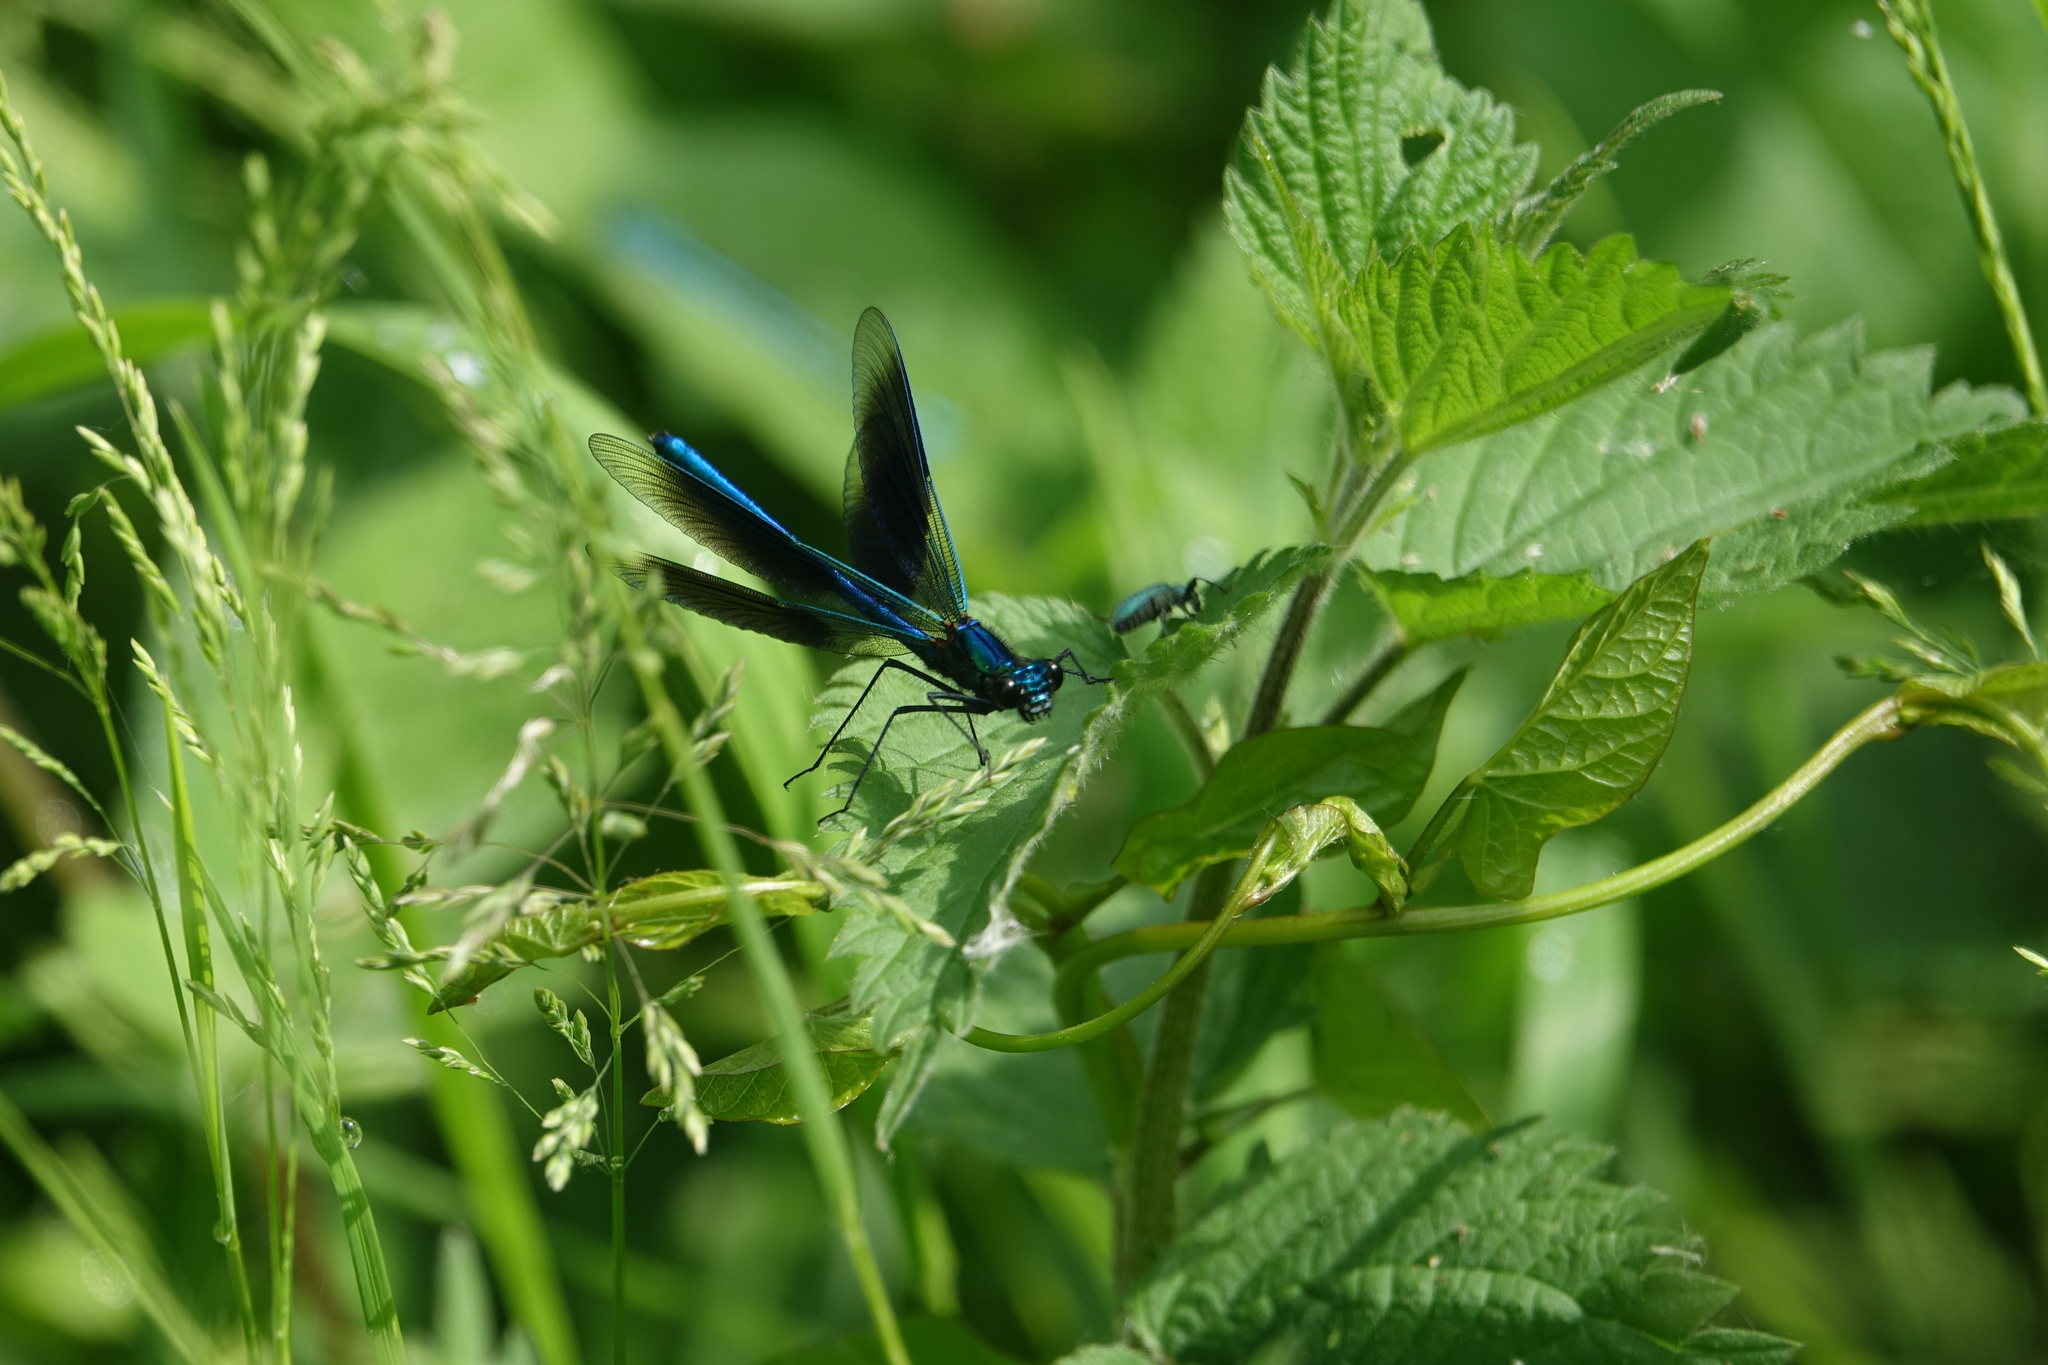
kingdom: Animalia
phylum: Arthropoda
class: Insecta
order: Odonata
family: Calopterygidae
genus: Calopteryx
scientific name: Calopteryx splendens
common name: Banded demoiselle
